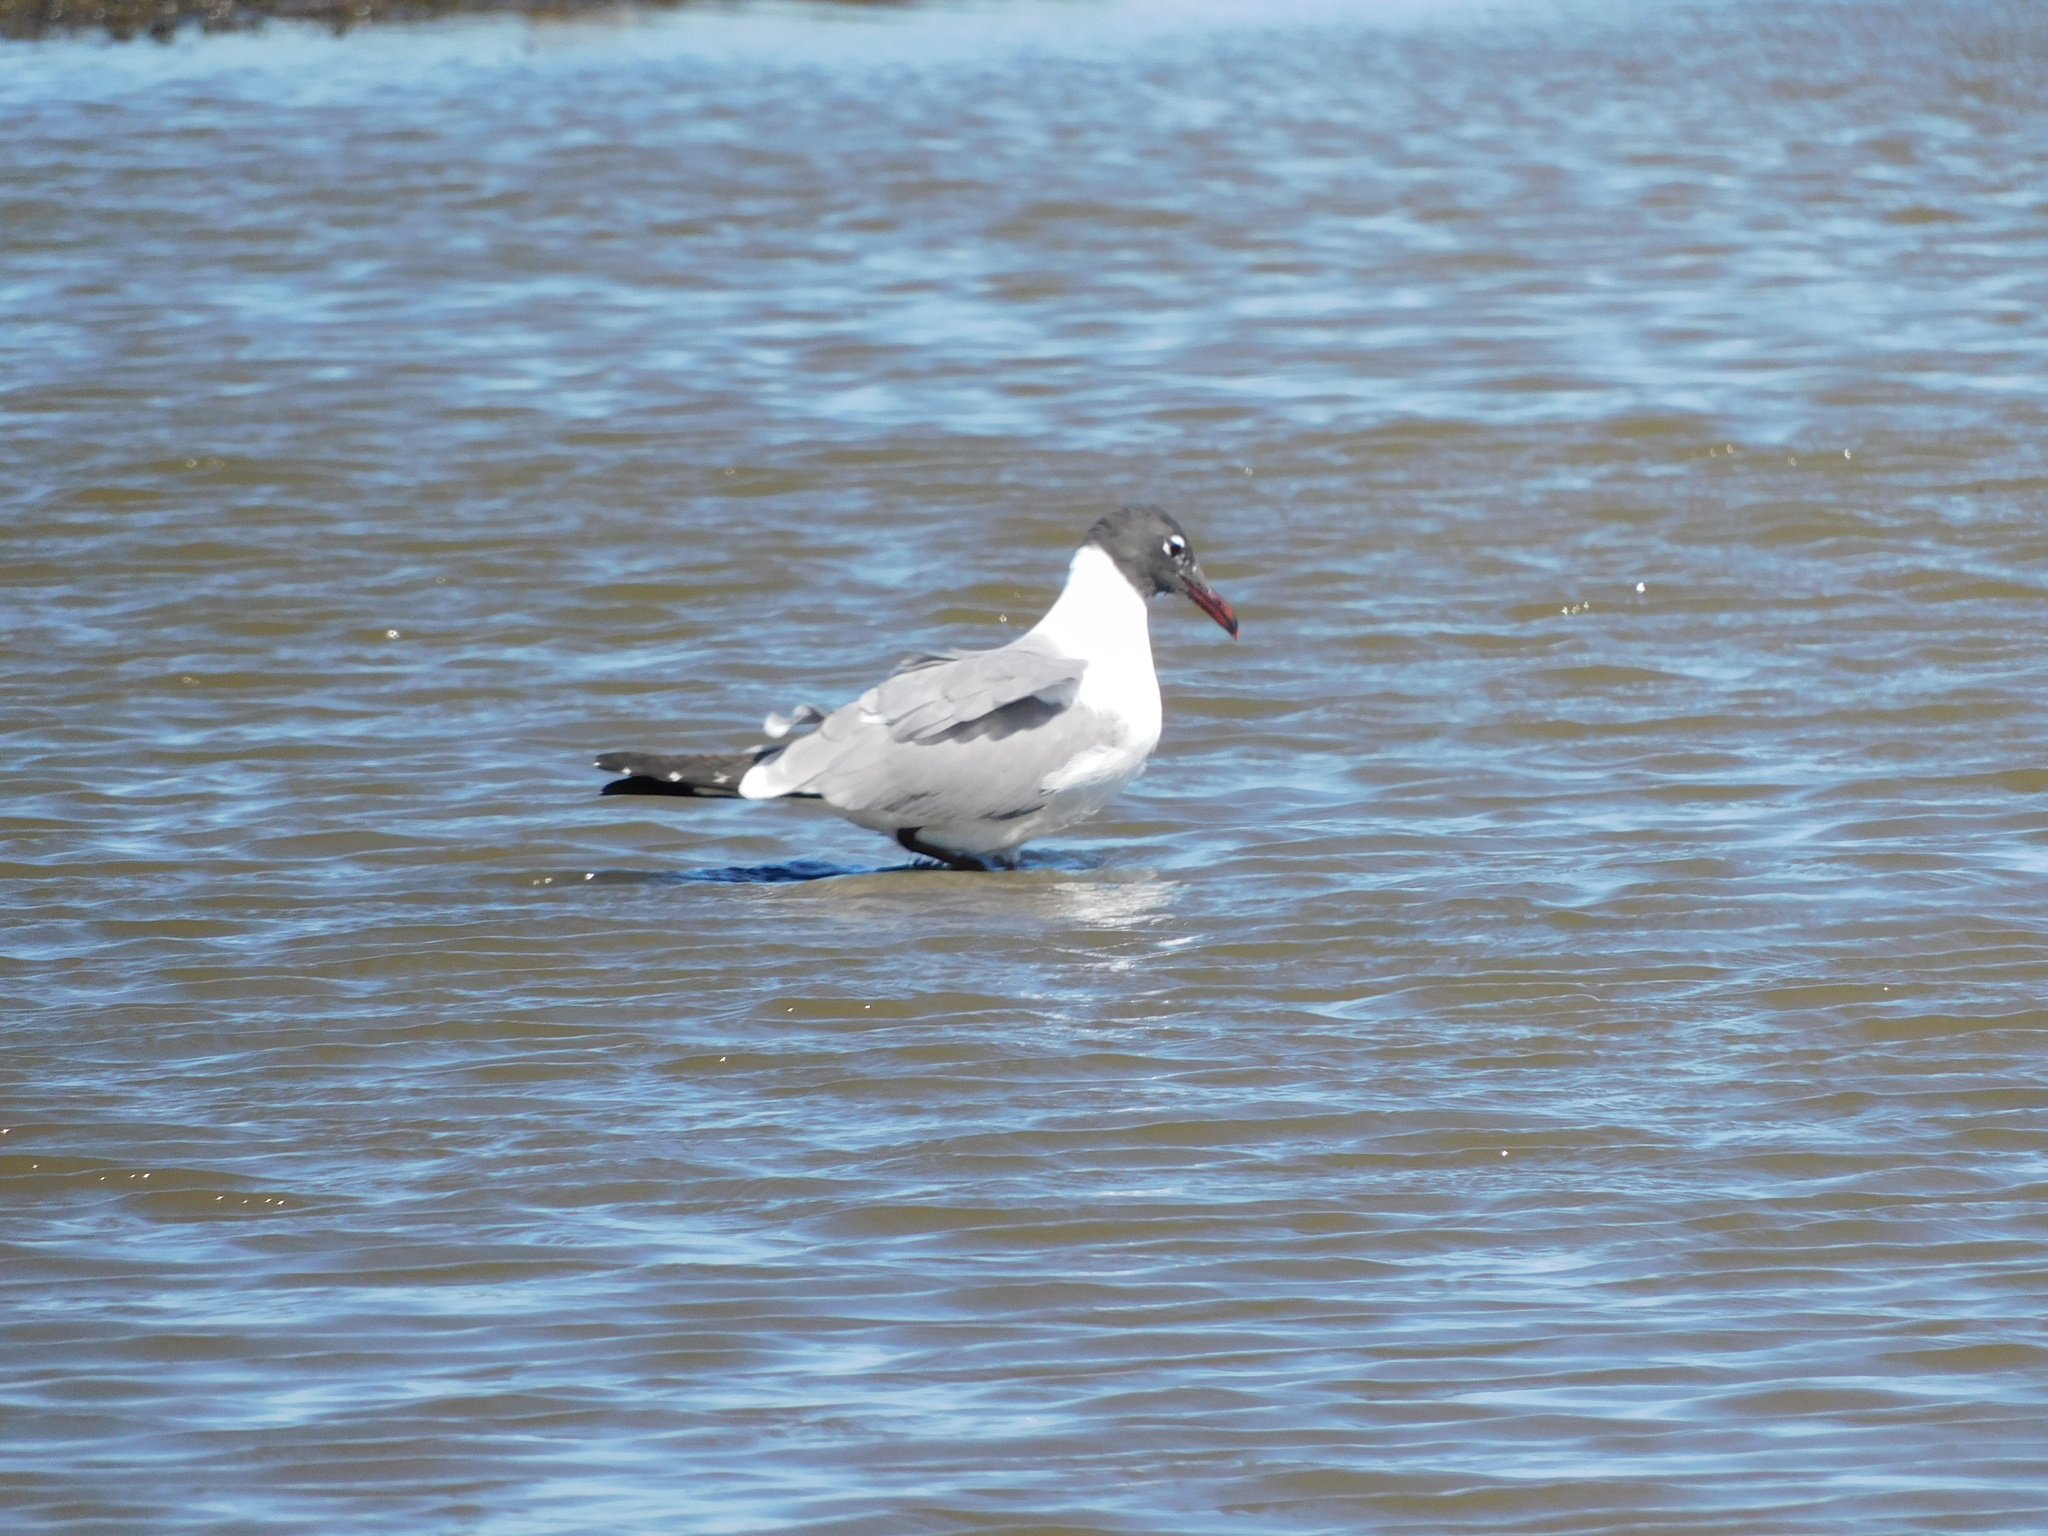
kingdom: Animalia
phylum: Chordata
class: Aves
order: Charadriiformes
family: Laridae
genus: Leucophaeus
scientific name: Leucophaeus atricilla
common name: Laughing gull
